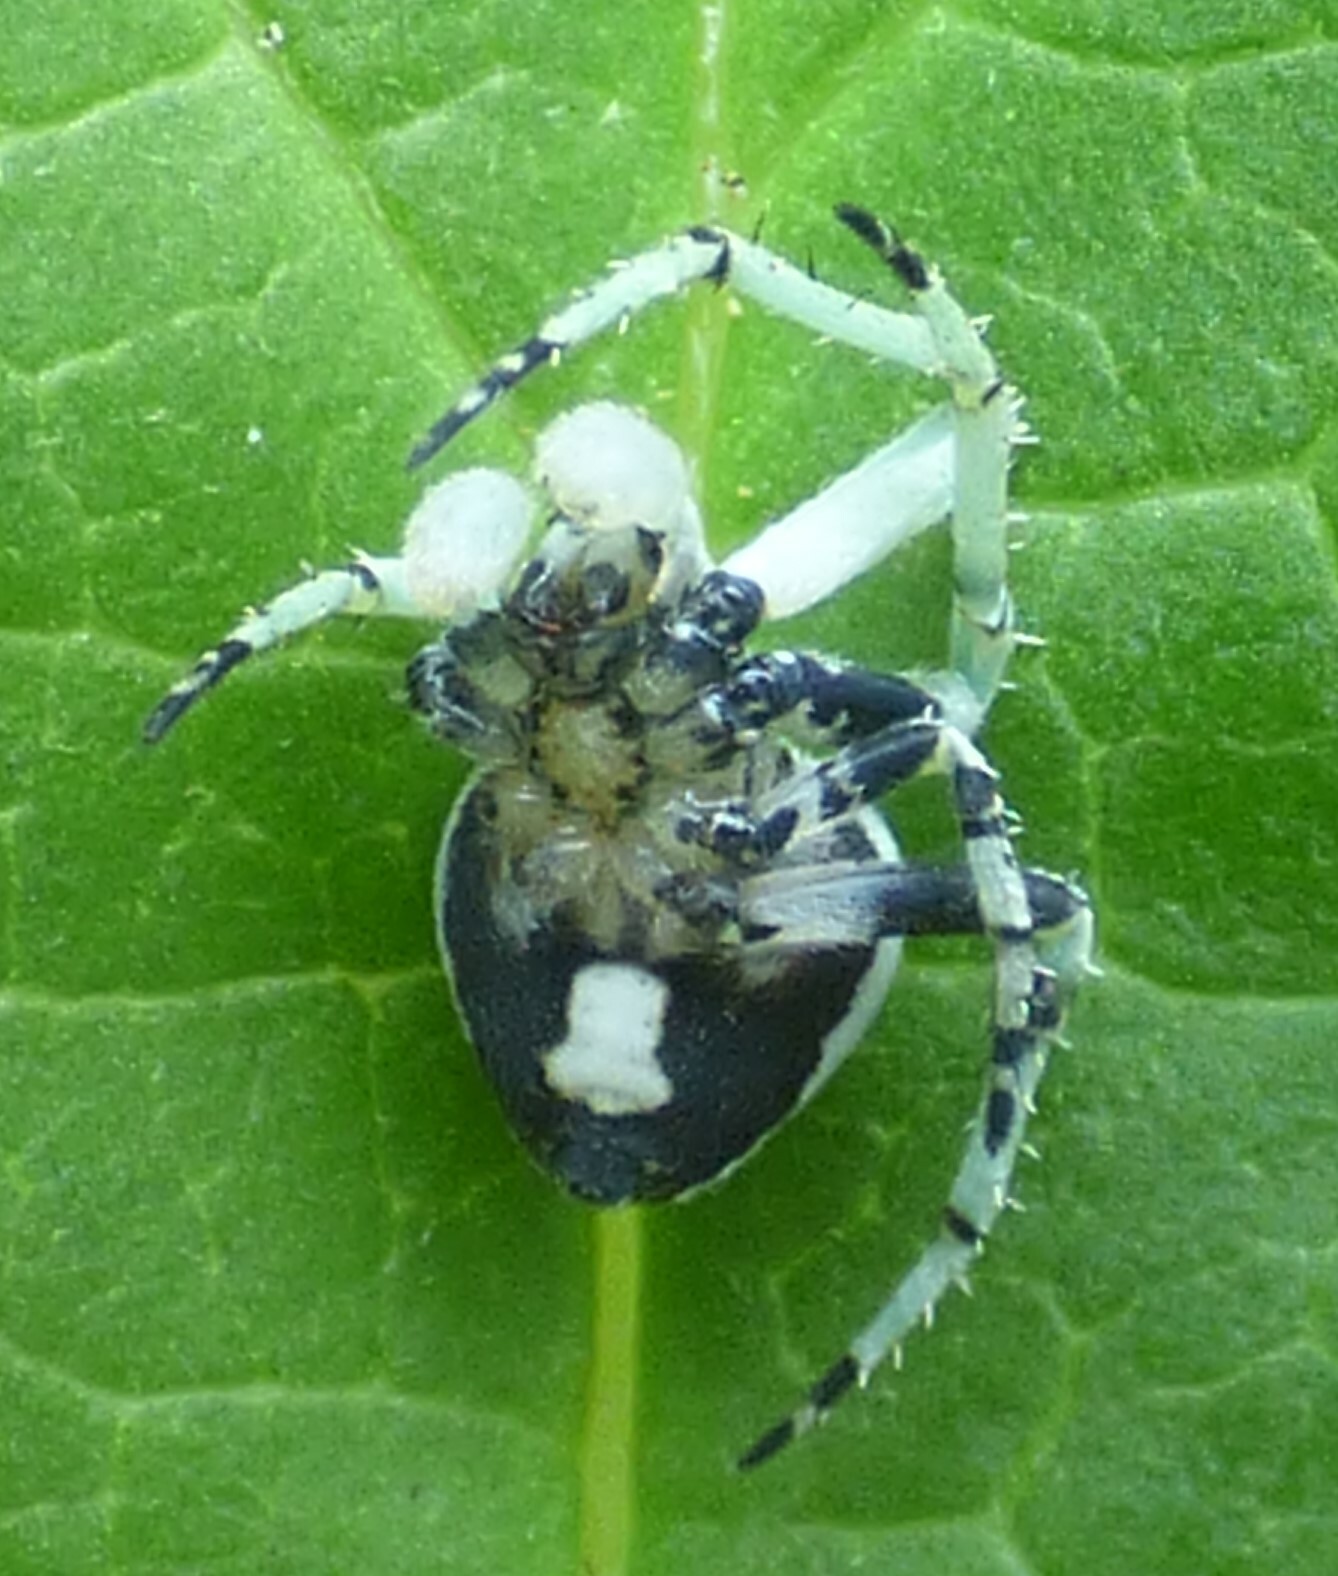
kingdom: Animalia
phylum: Arthropoda
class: Arachnida
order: Araneae
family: Araneidae
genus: Eustala
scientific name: Eustala anastera
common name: Orb weavers
